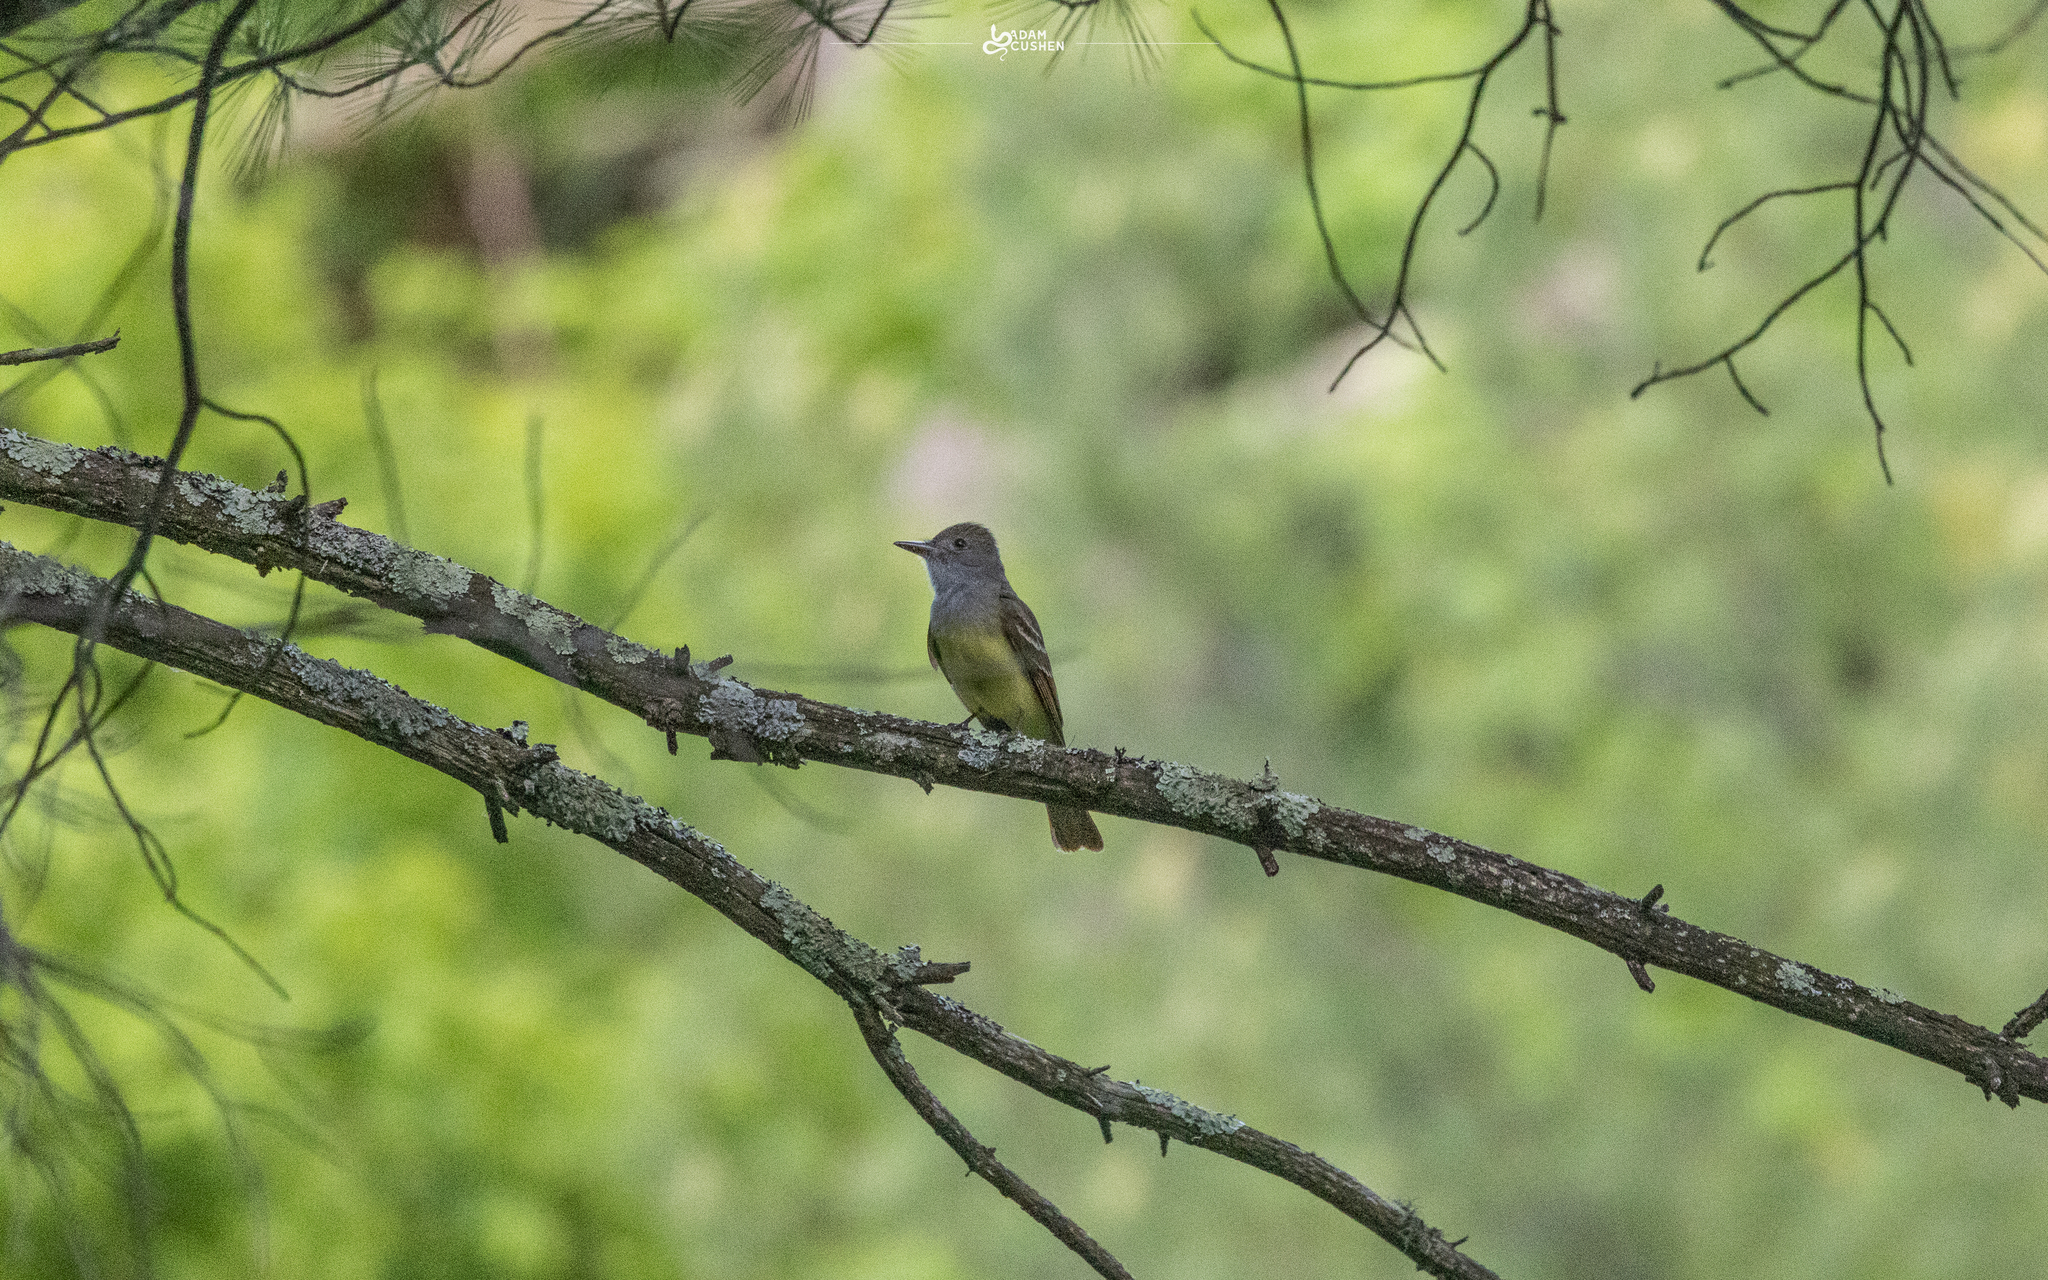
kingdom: Animalia
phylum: Chordata
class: Aves
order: Passeriformes
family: Tyrannidae
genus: Myiarchus
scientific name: Myiarchus crinitus
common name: Great crested flycatcher
